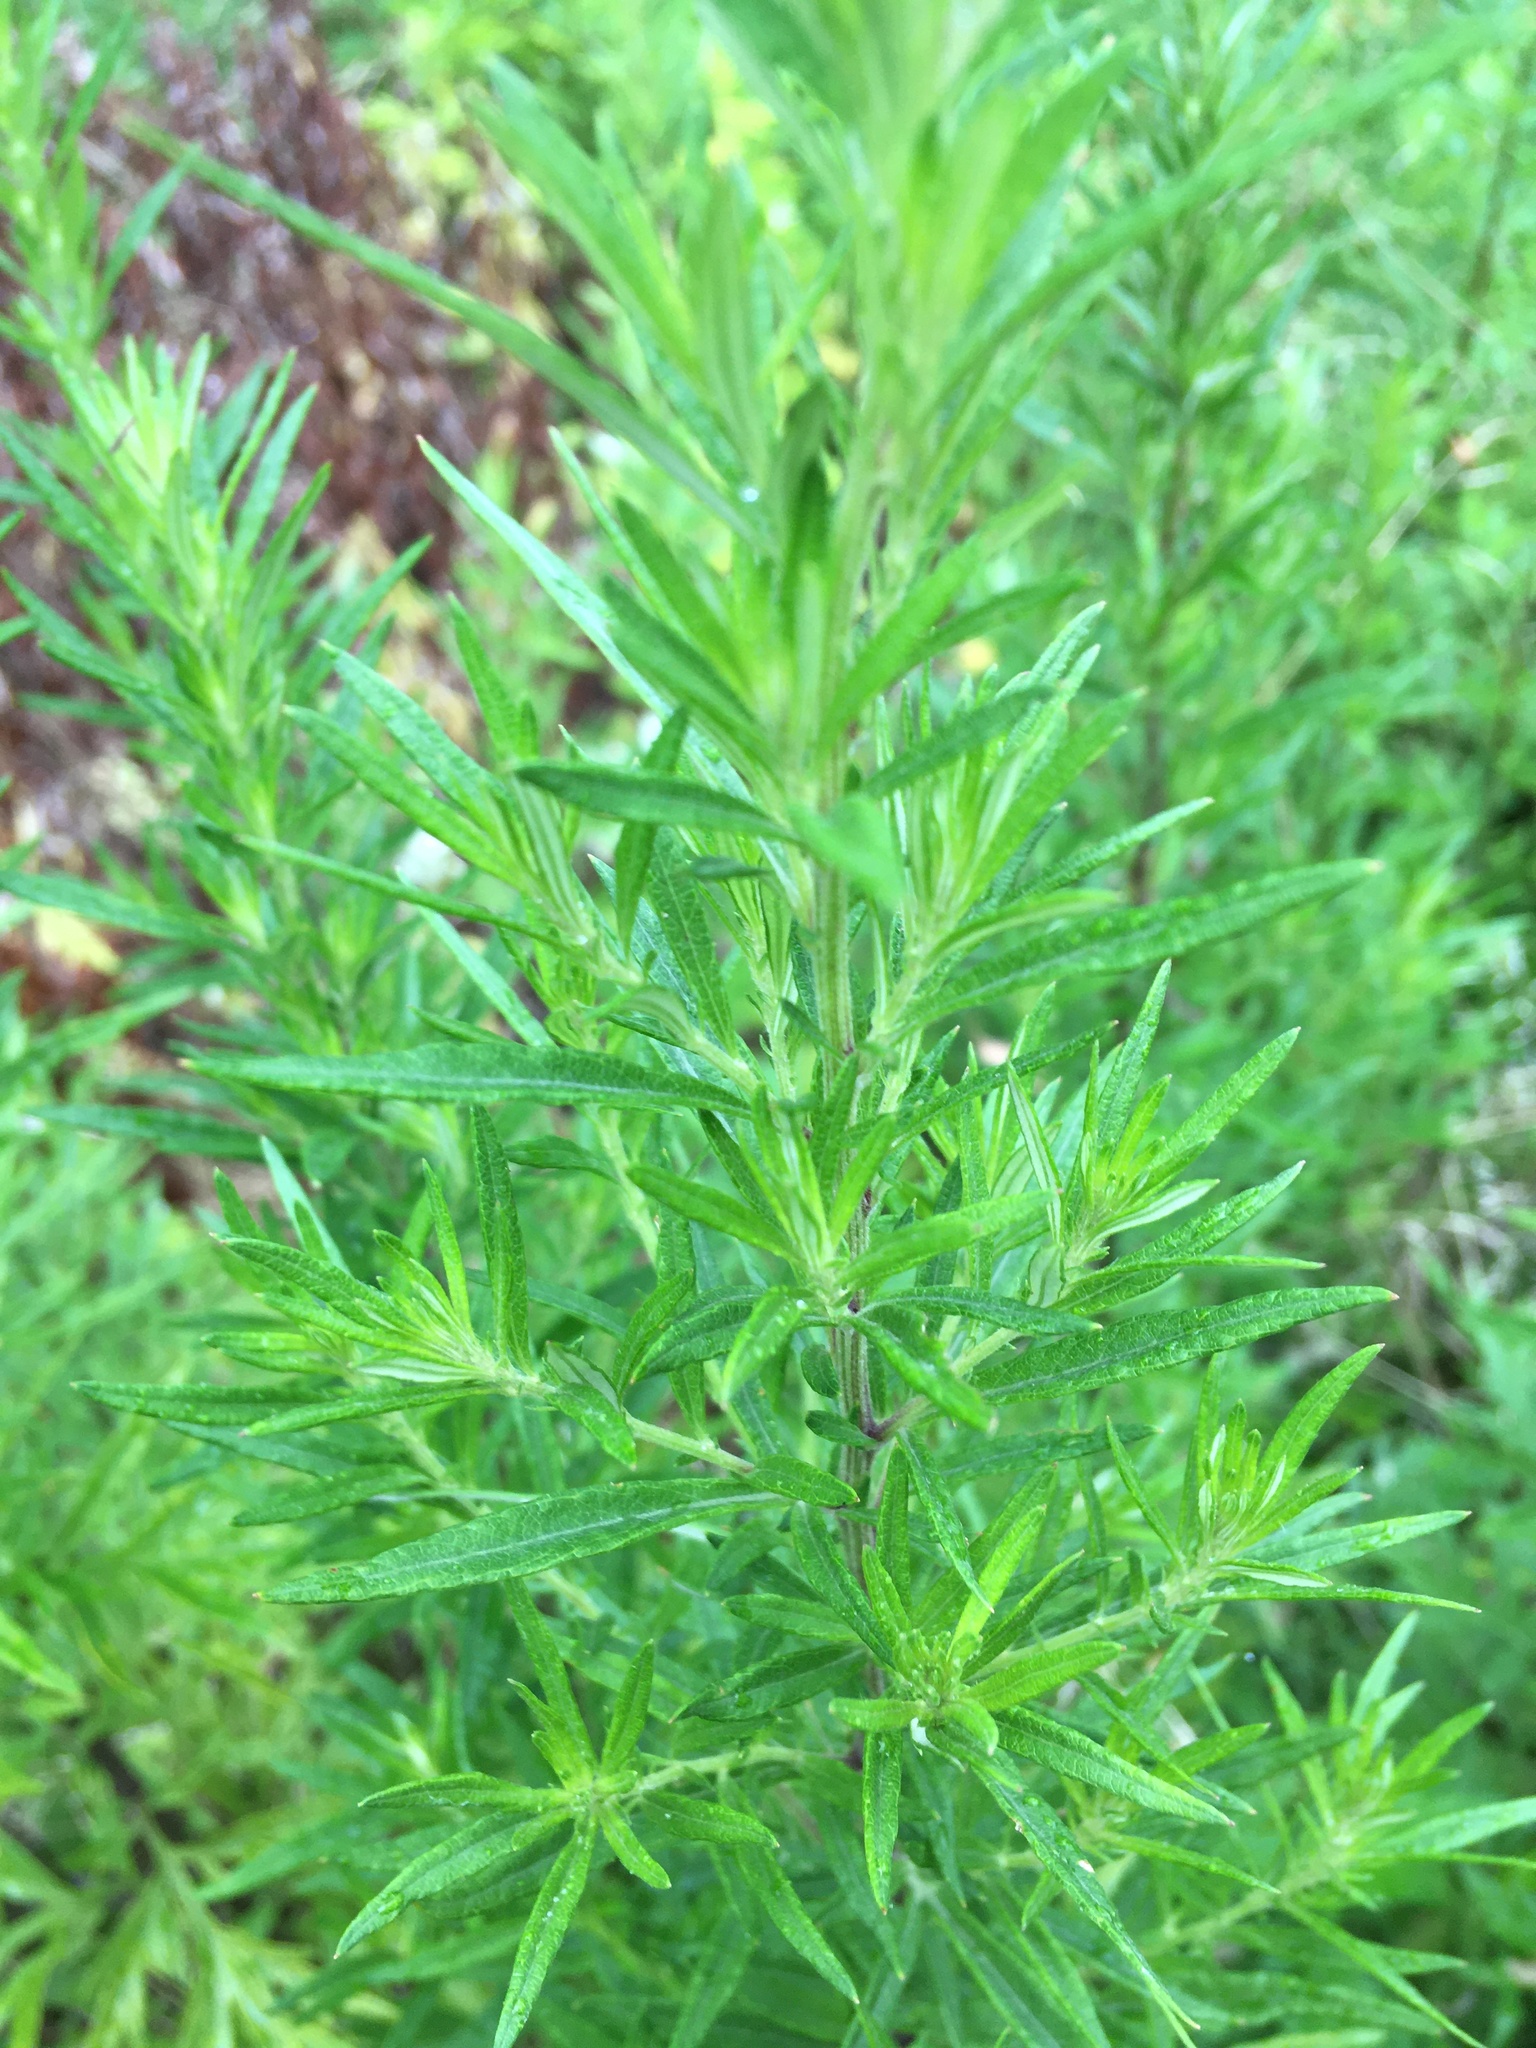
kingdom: Plantae
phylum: Tracheophyta
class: Magnoliopsida
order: Asterales
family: Asteraceae
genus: Artemisia
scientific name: Artemisia vulgaris
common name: Mugwort
